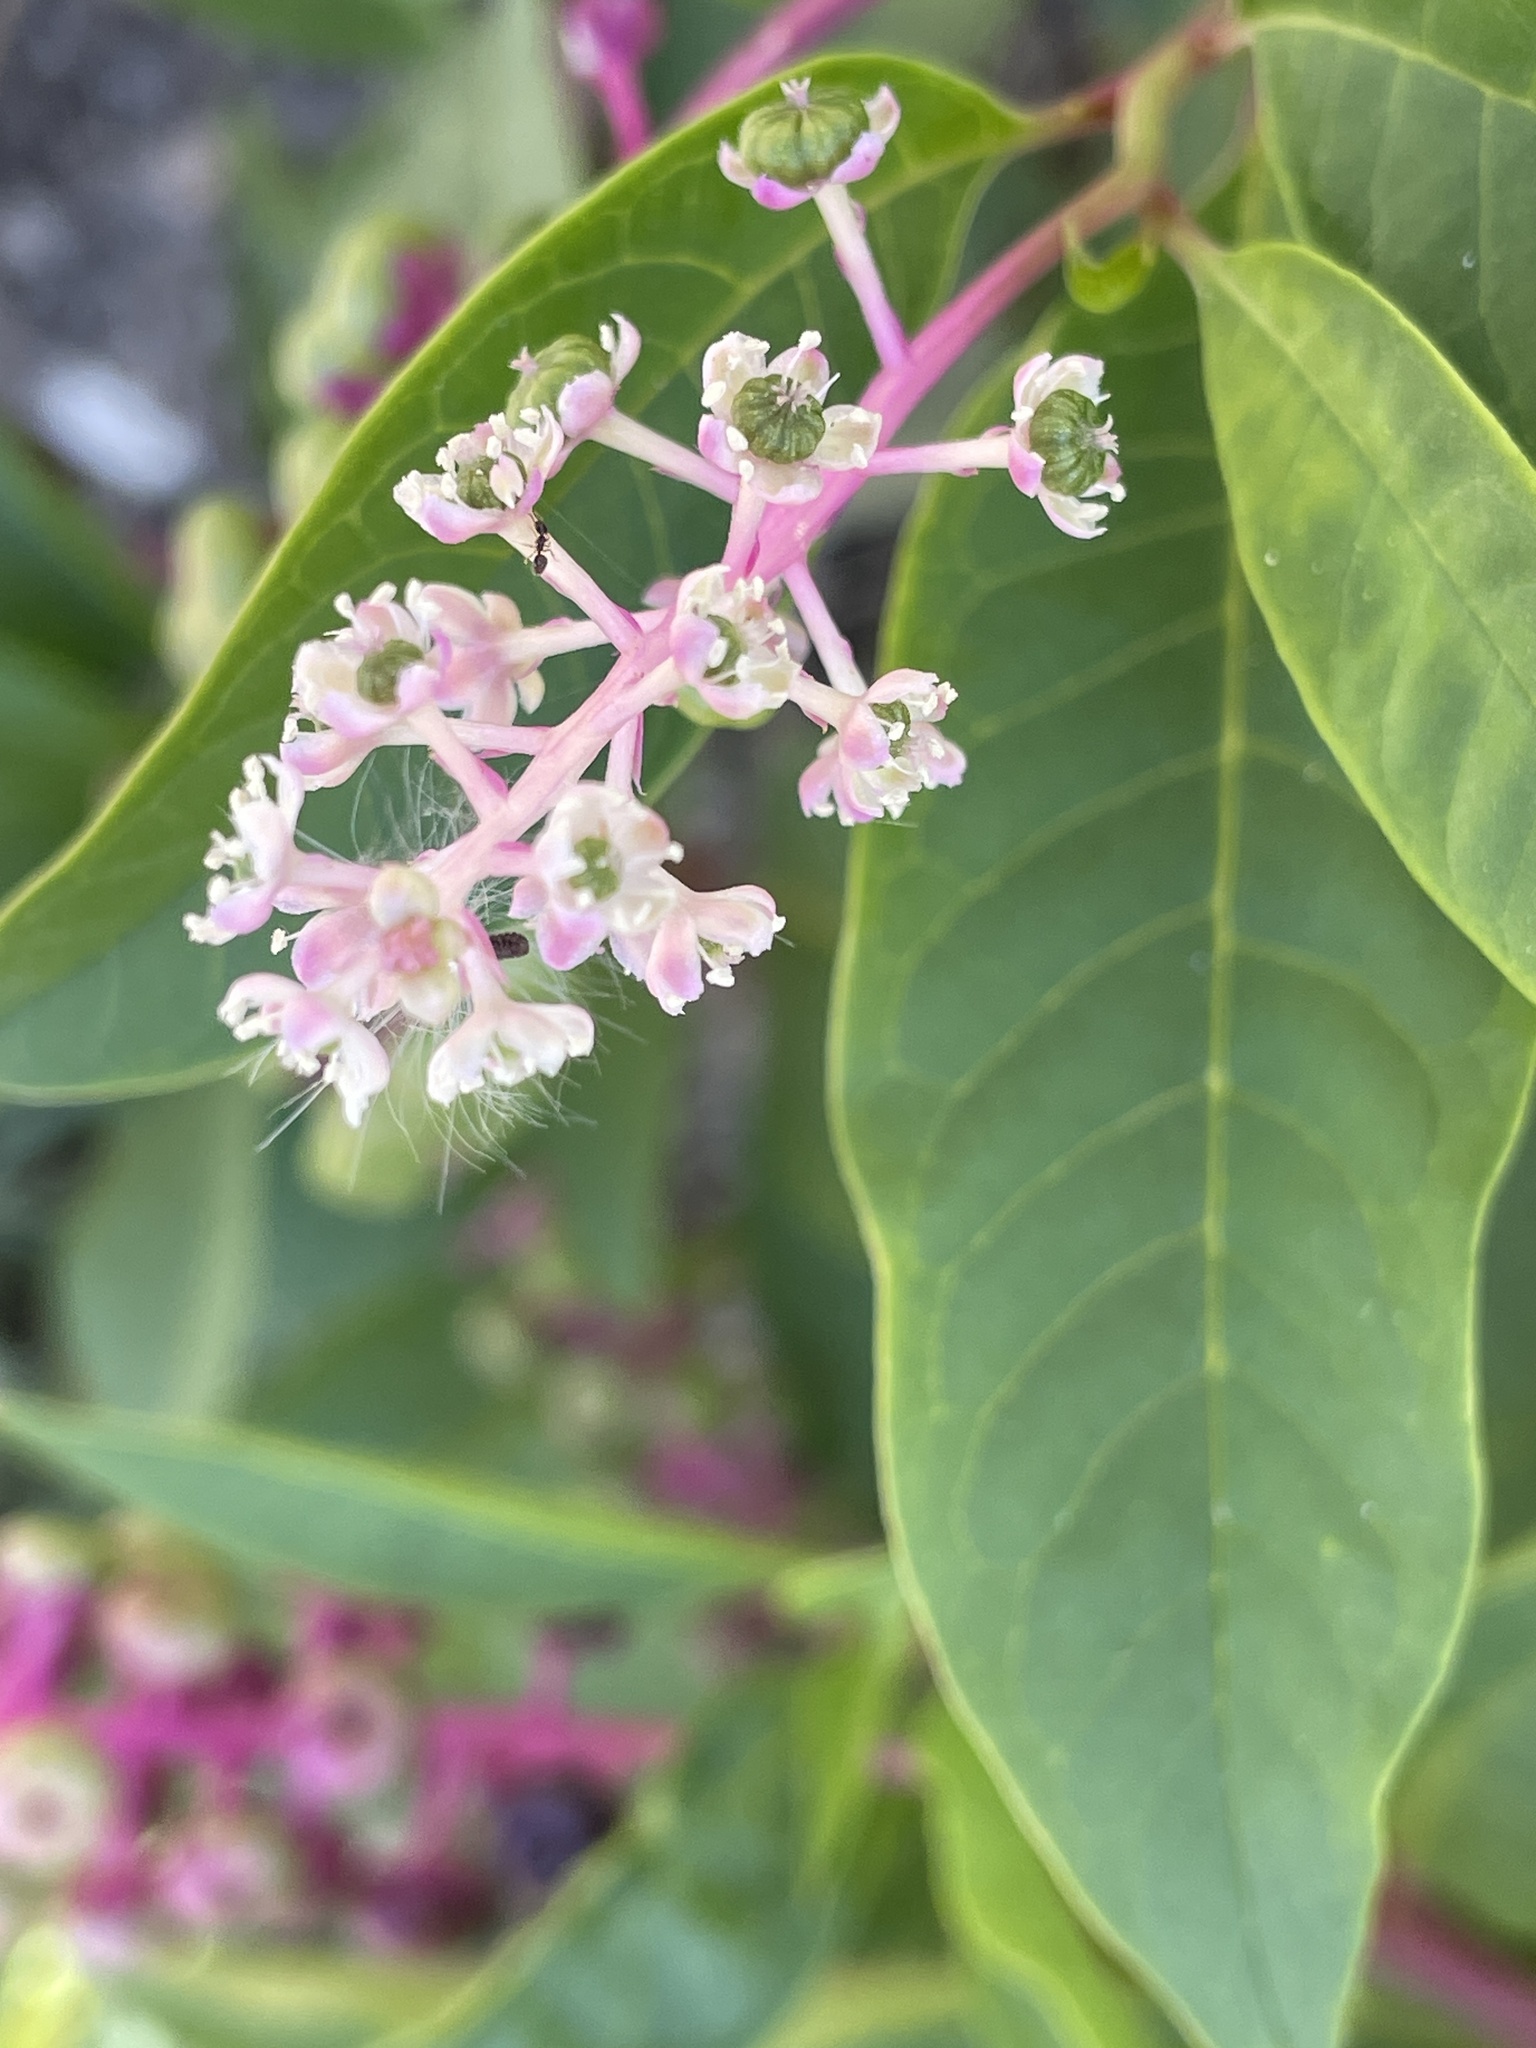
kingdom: Plantae
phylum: Tracheophyta
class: Magnoliopsida
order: Caryophyllales
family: Phytolaccaceae
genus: Phytolacca
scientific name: Phytolacca americana
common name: American pokeweed
